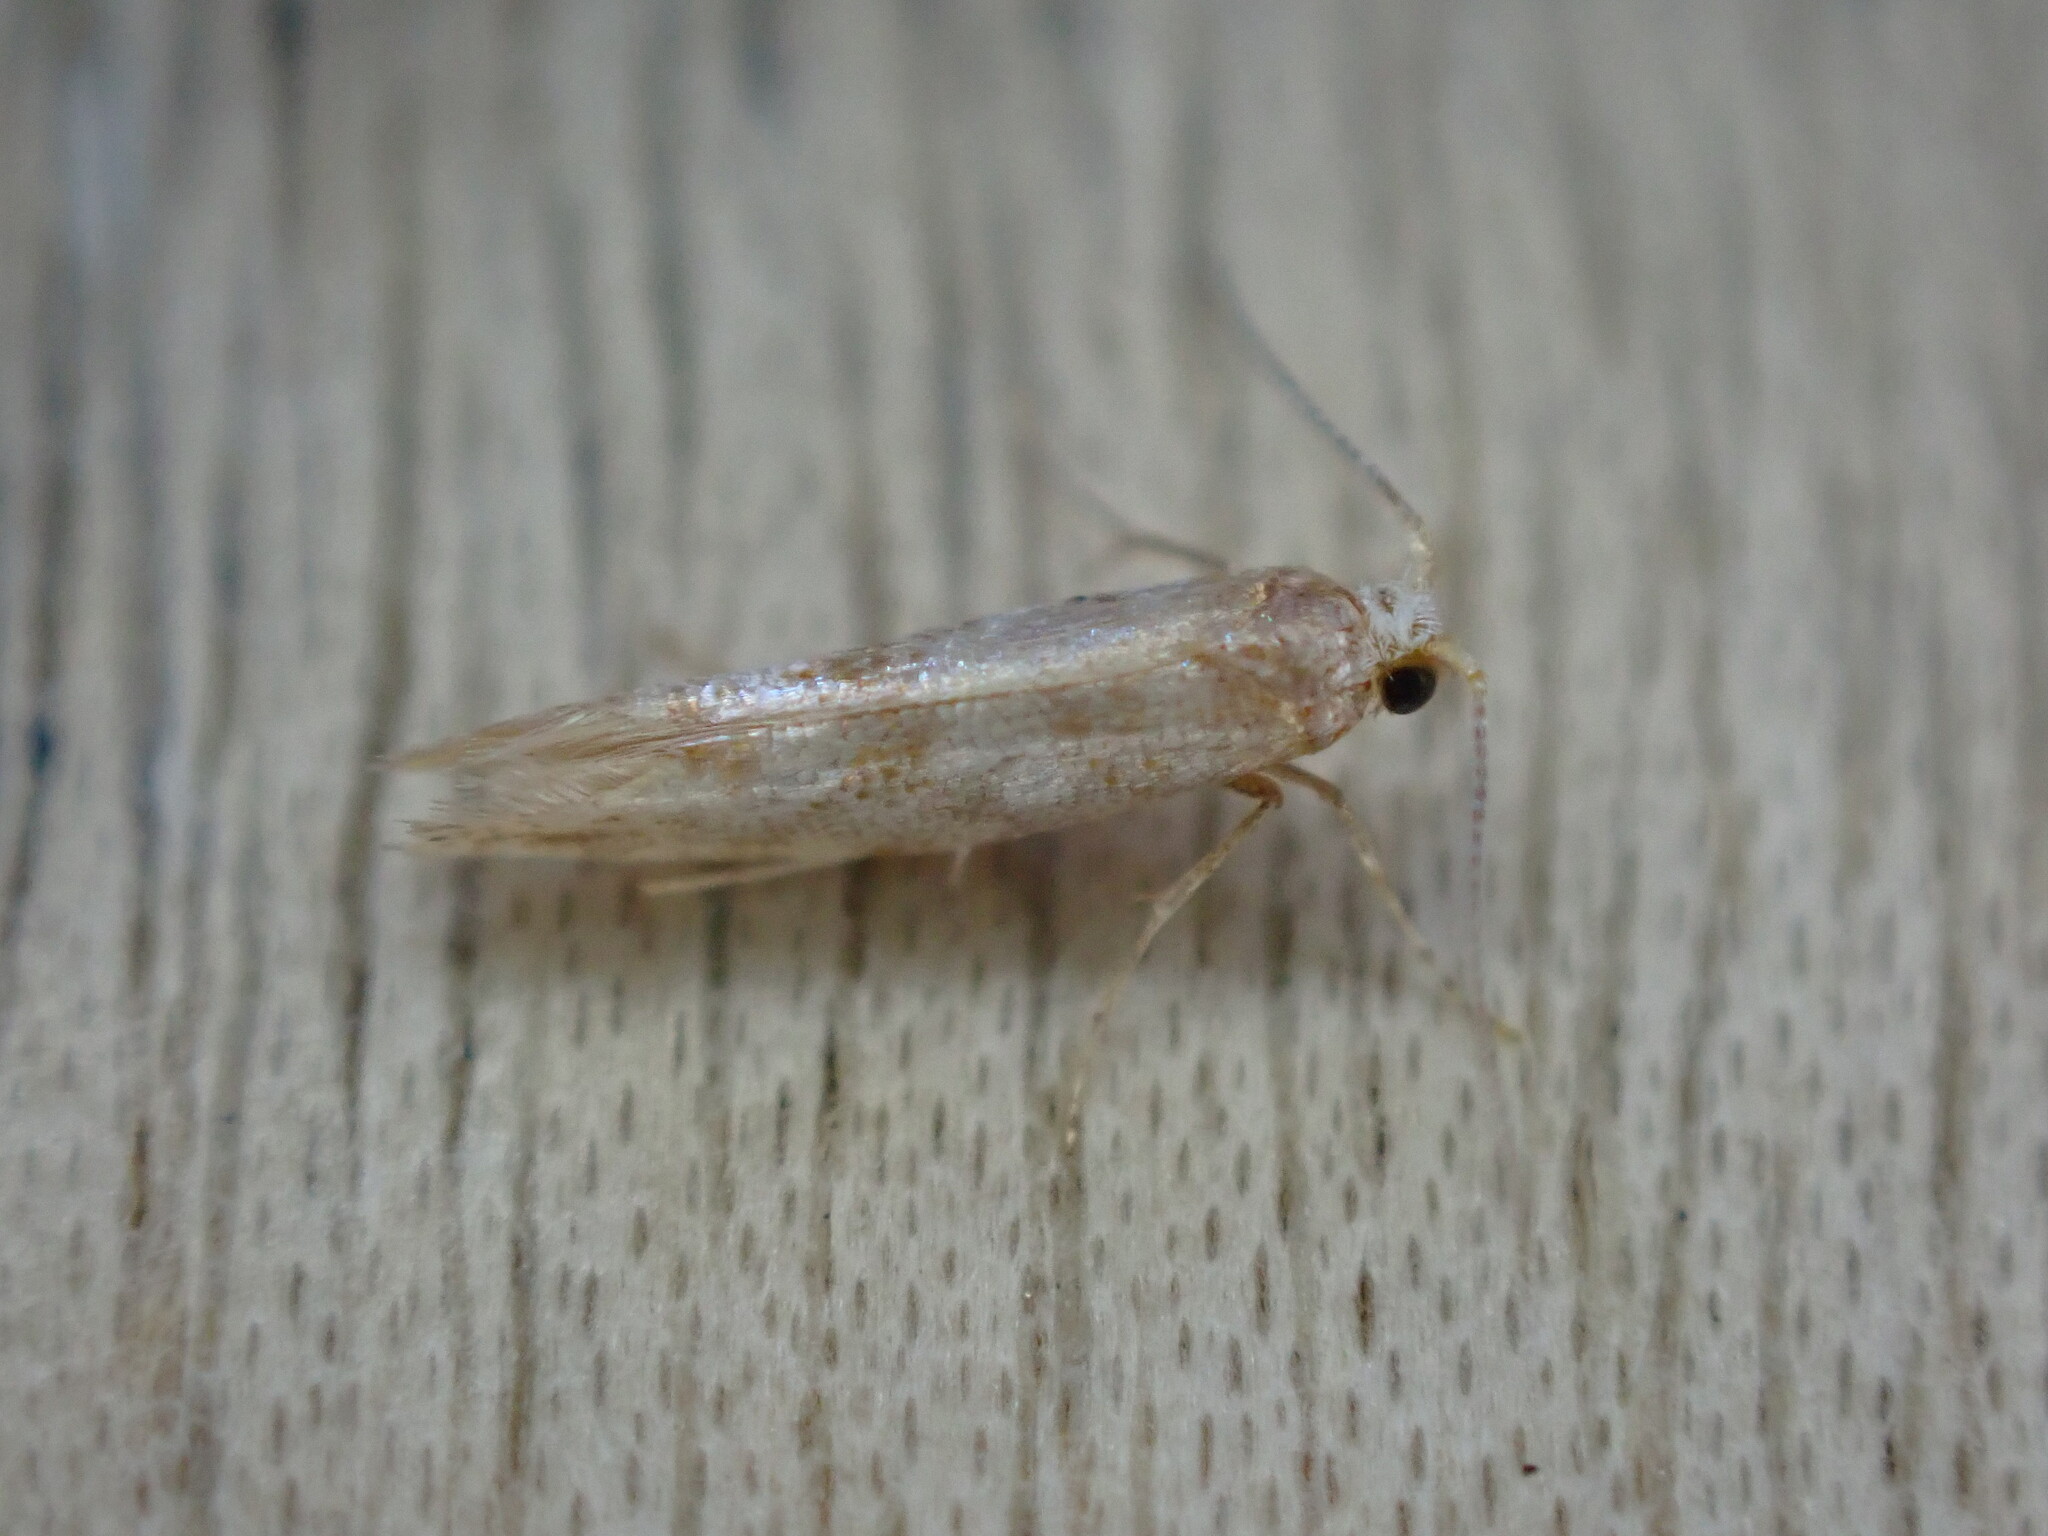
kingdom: Animalia
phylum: Arthropoda
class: Insecta
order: Lepidoptera
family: Argyresthiidae
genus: Argyresthia
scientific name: Argyresthia cupressella
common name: Cypress tip moth
